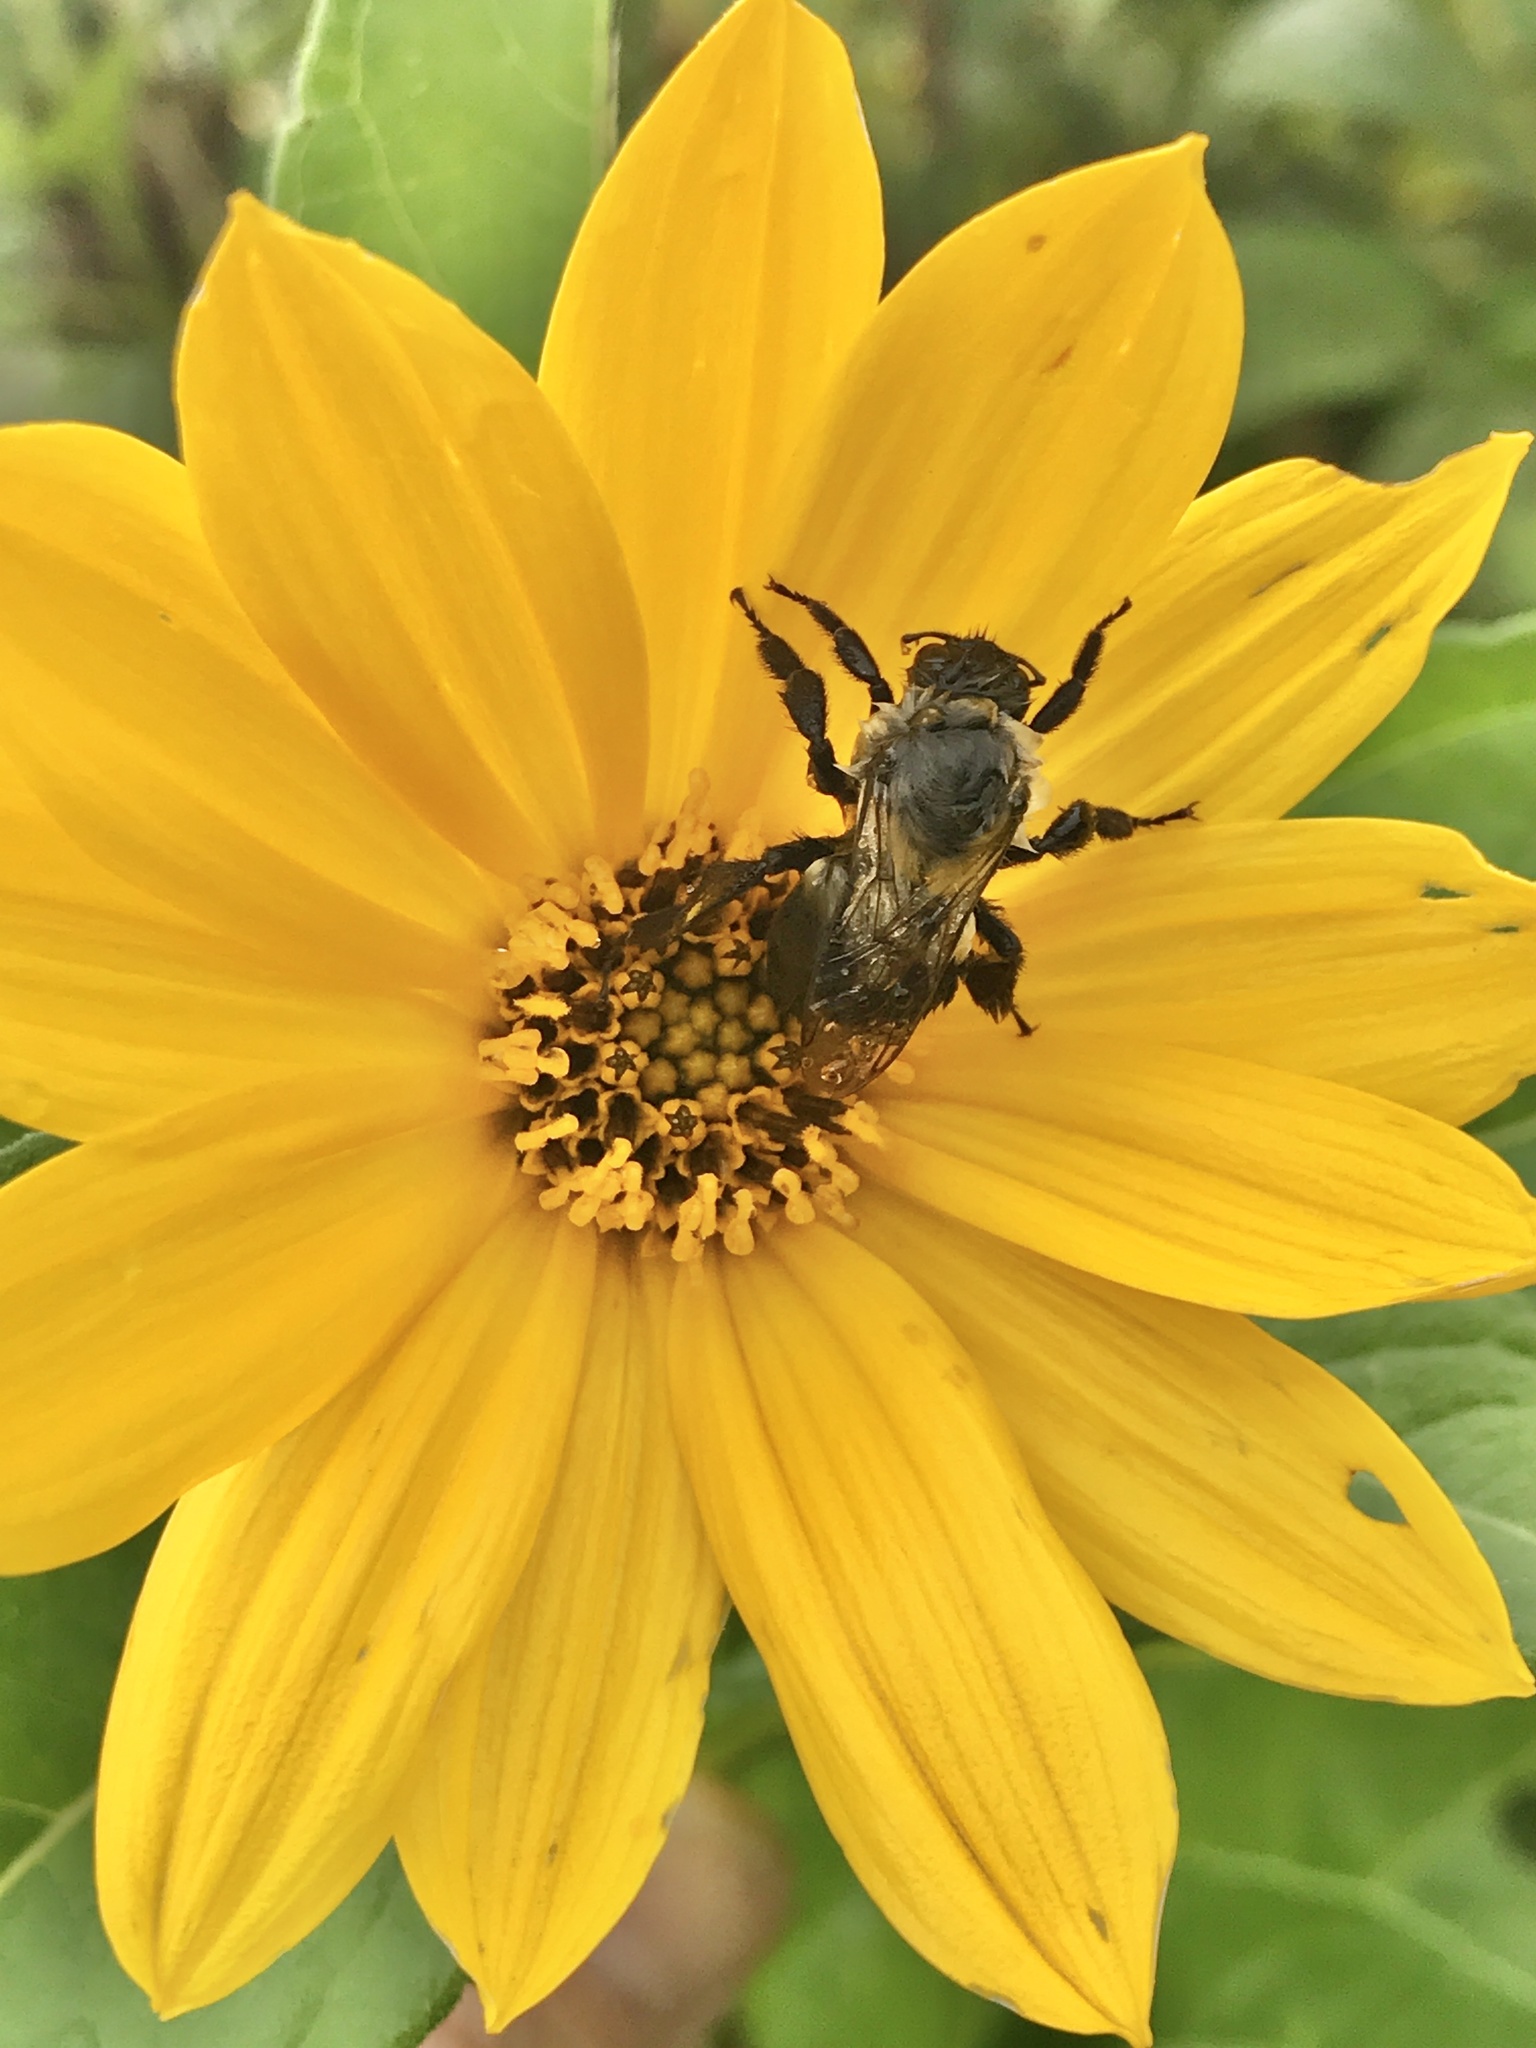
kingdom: Animalia
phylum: Arthropoda
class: Insecta
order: Hymenoptera
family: Apidae
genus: Bombus
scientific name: Bombus impatiens
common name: Common eastern bumble bee
